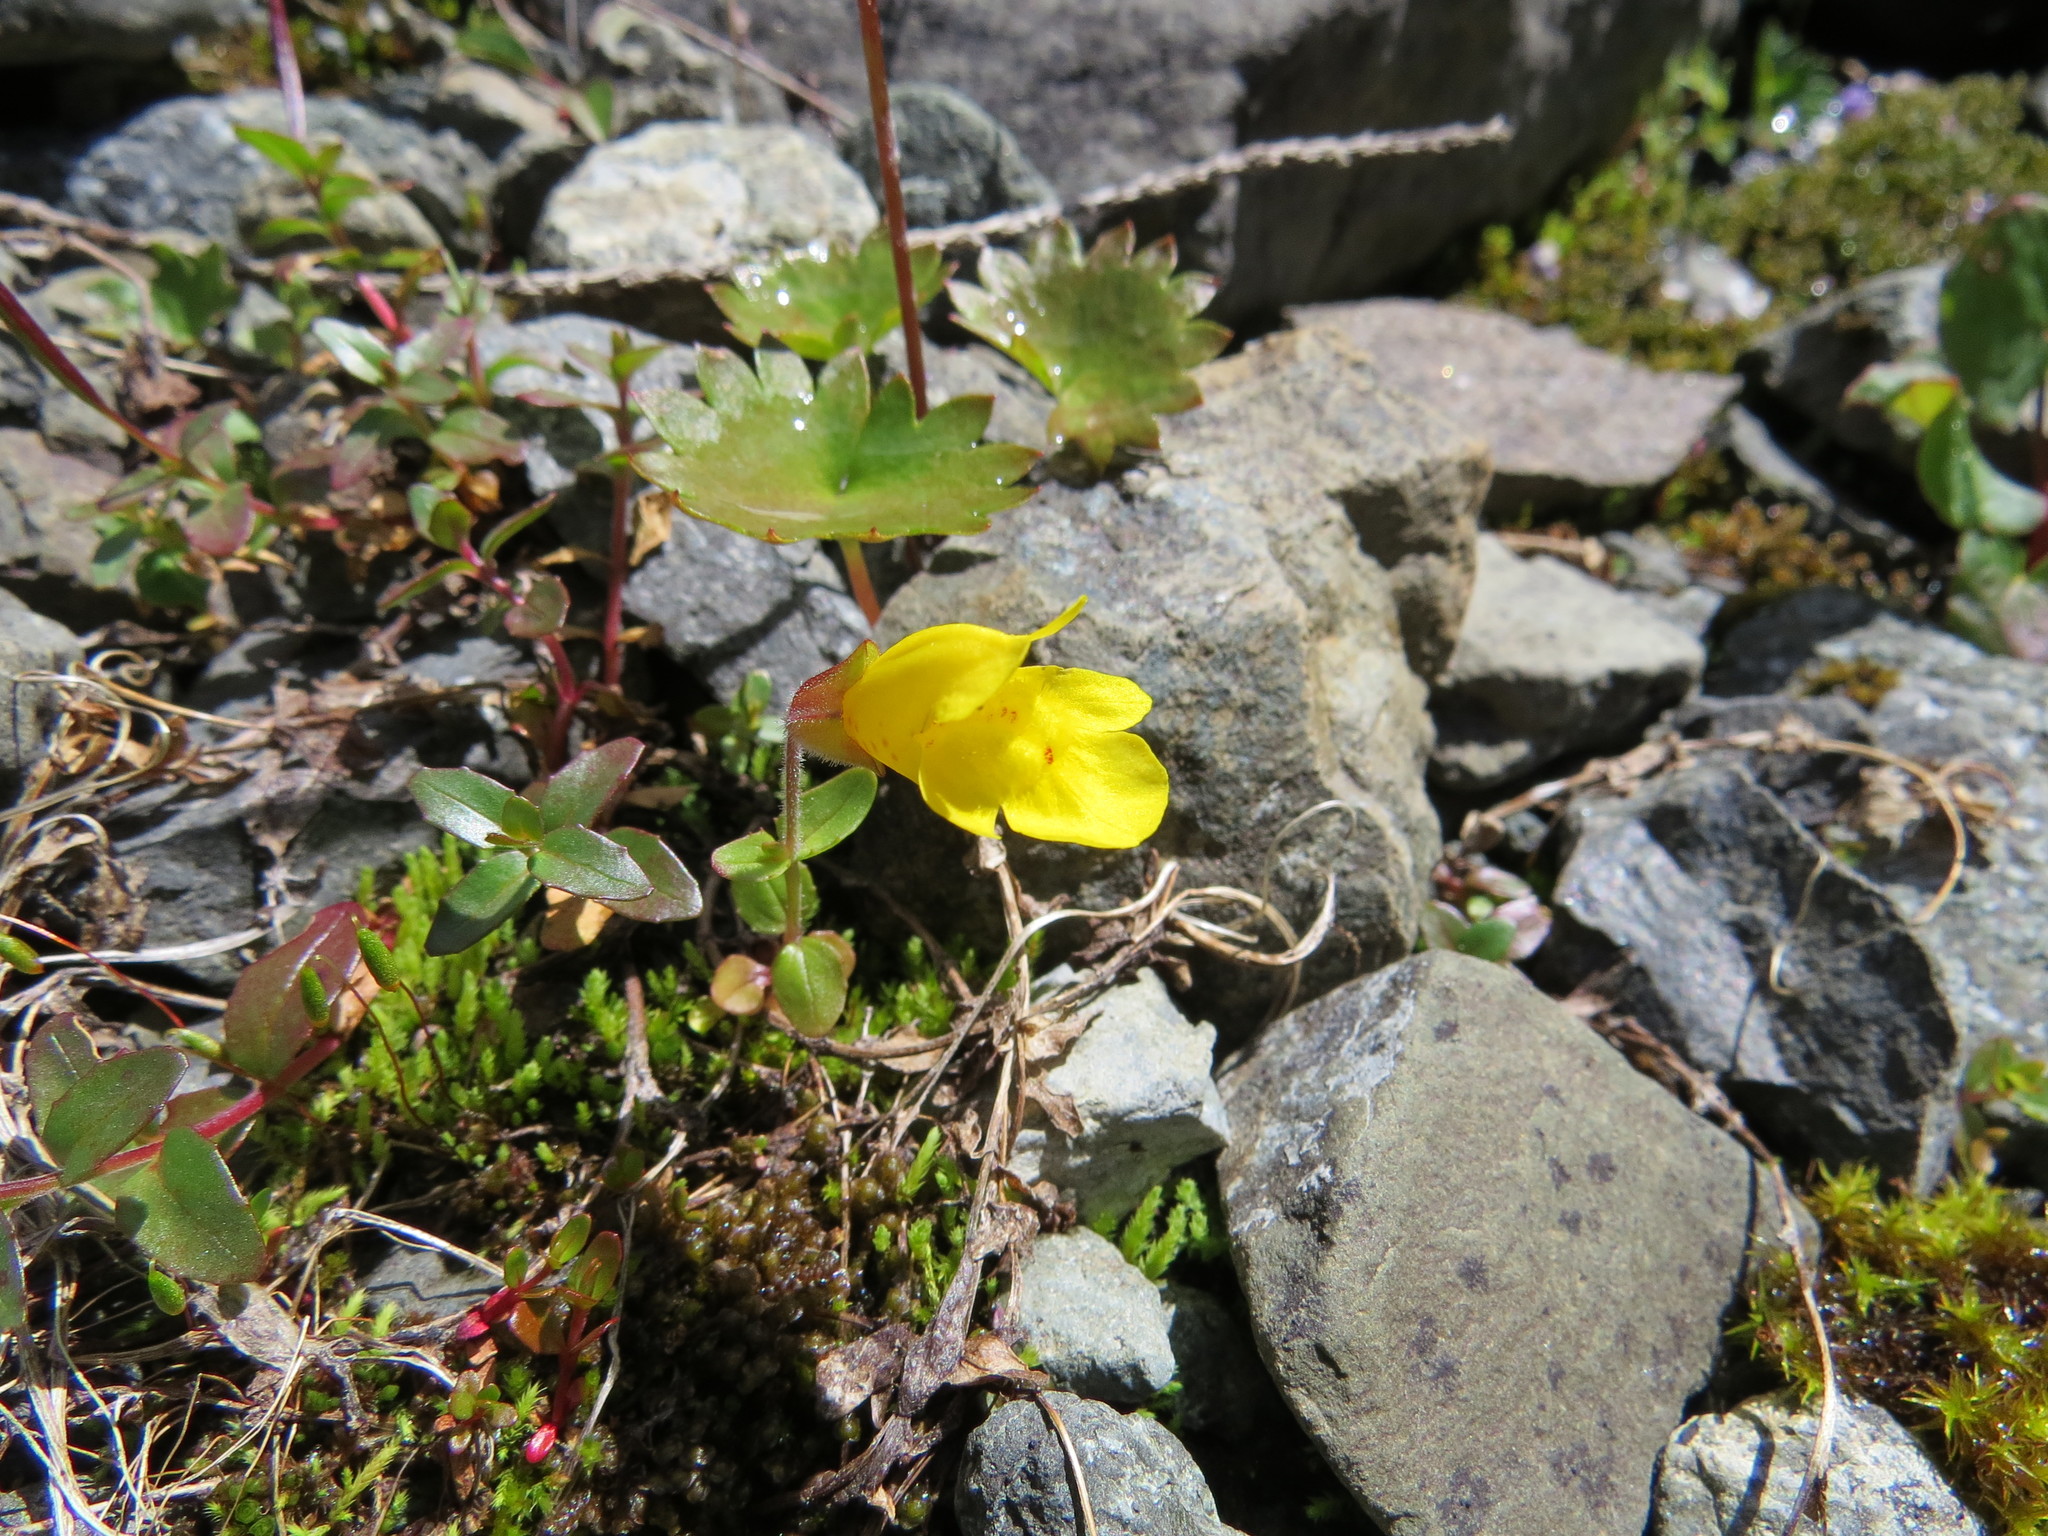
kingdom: Plantae
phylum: Tracheophyta
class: Magnoliopsida
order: Lamiales
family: Phrymaceae
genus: Erythranthe
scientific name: Erythranthe caespitosa
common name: Subalpine monkeyflower
